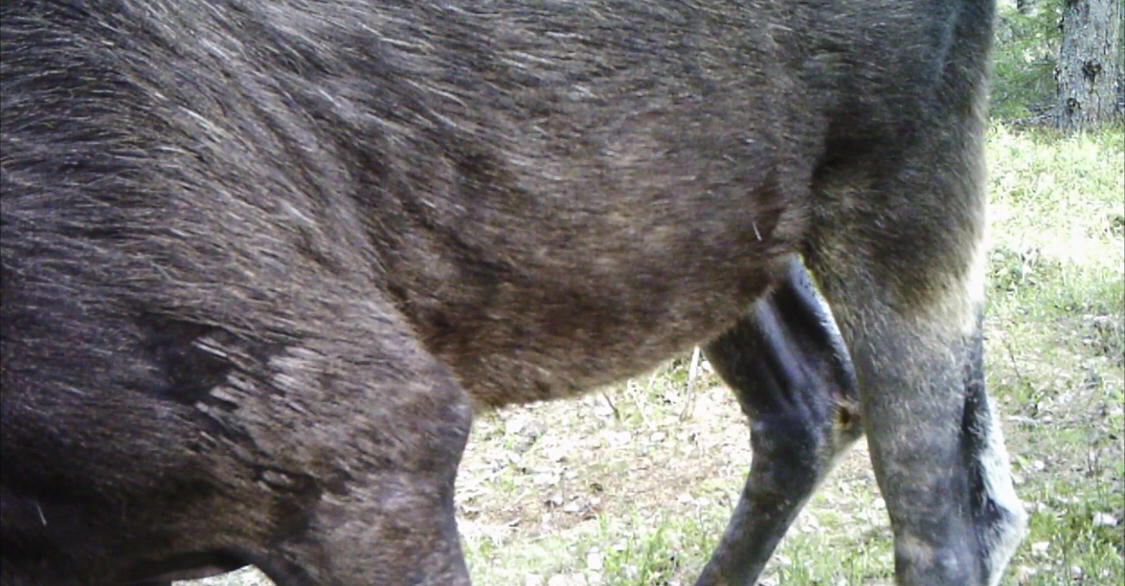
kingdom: Animalia
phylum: Chordata
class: Mammalia
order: Artiodactyla
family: Cervidae
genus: Alces
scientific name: Alces alces
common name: Moose
